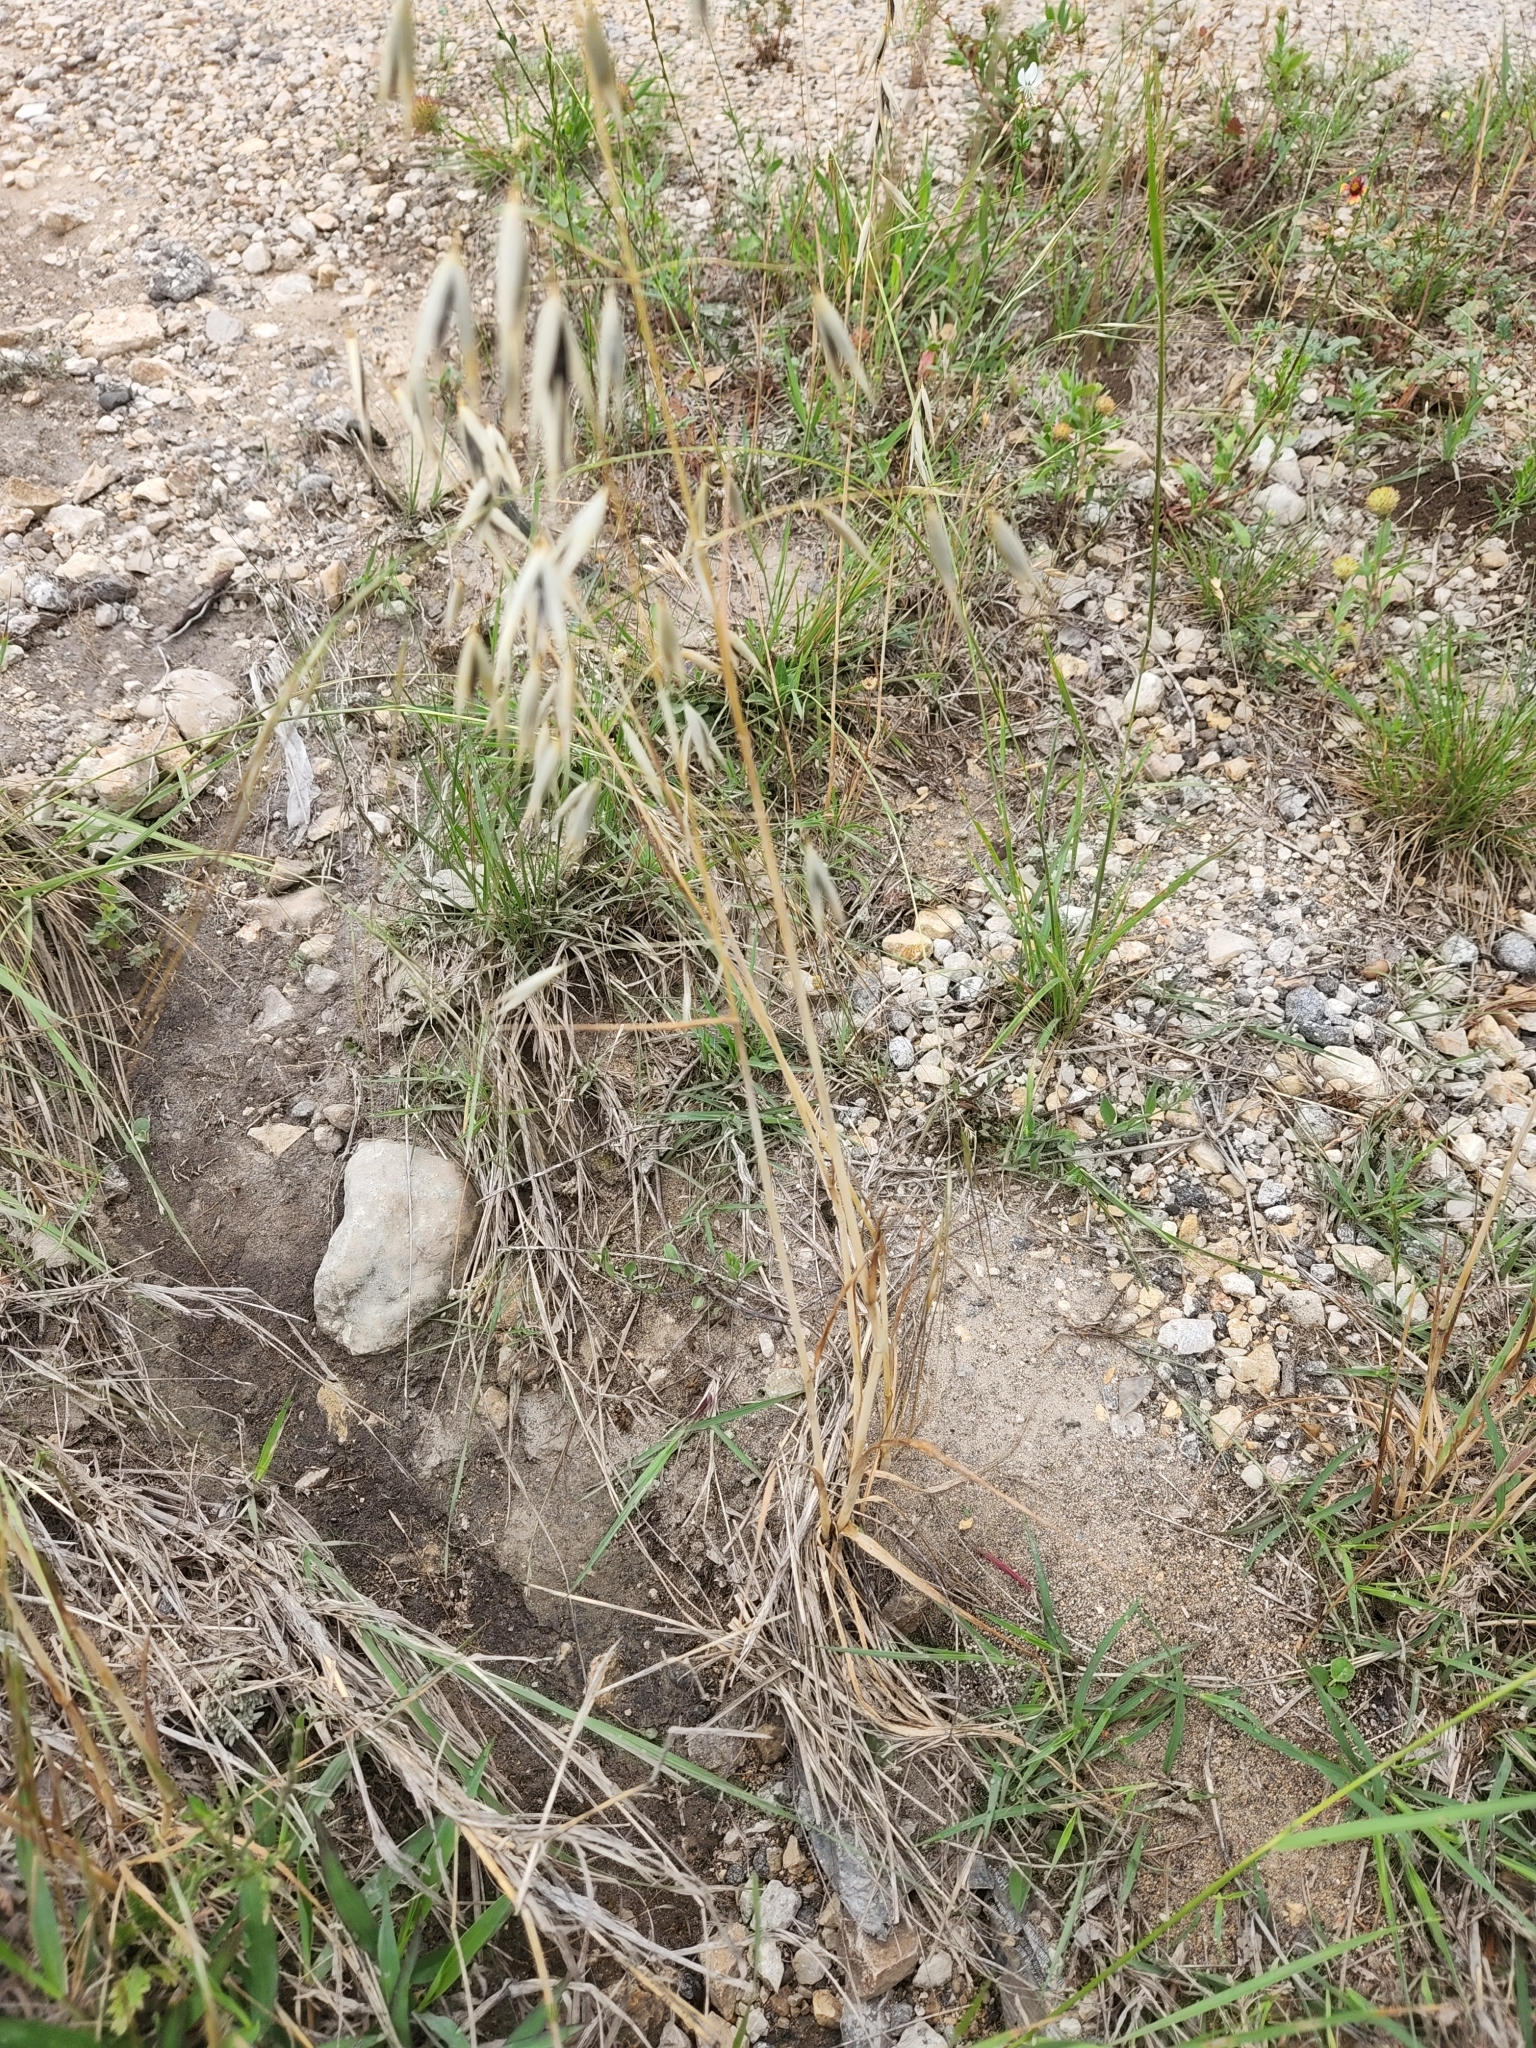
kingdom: Plantae
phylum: Tracheophyta
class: Liliopsida
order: Poales
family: Poaceae
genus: Avena
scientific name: Avena fatua
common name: Wild oat
